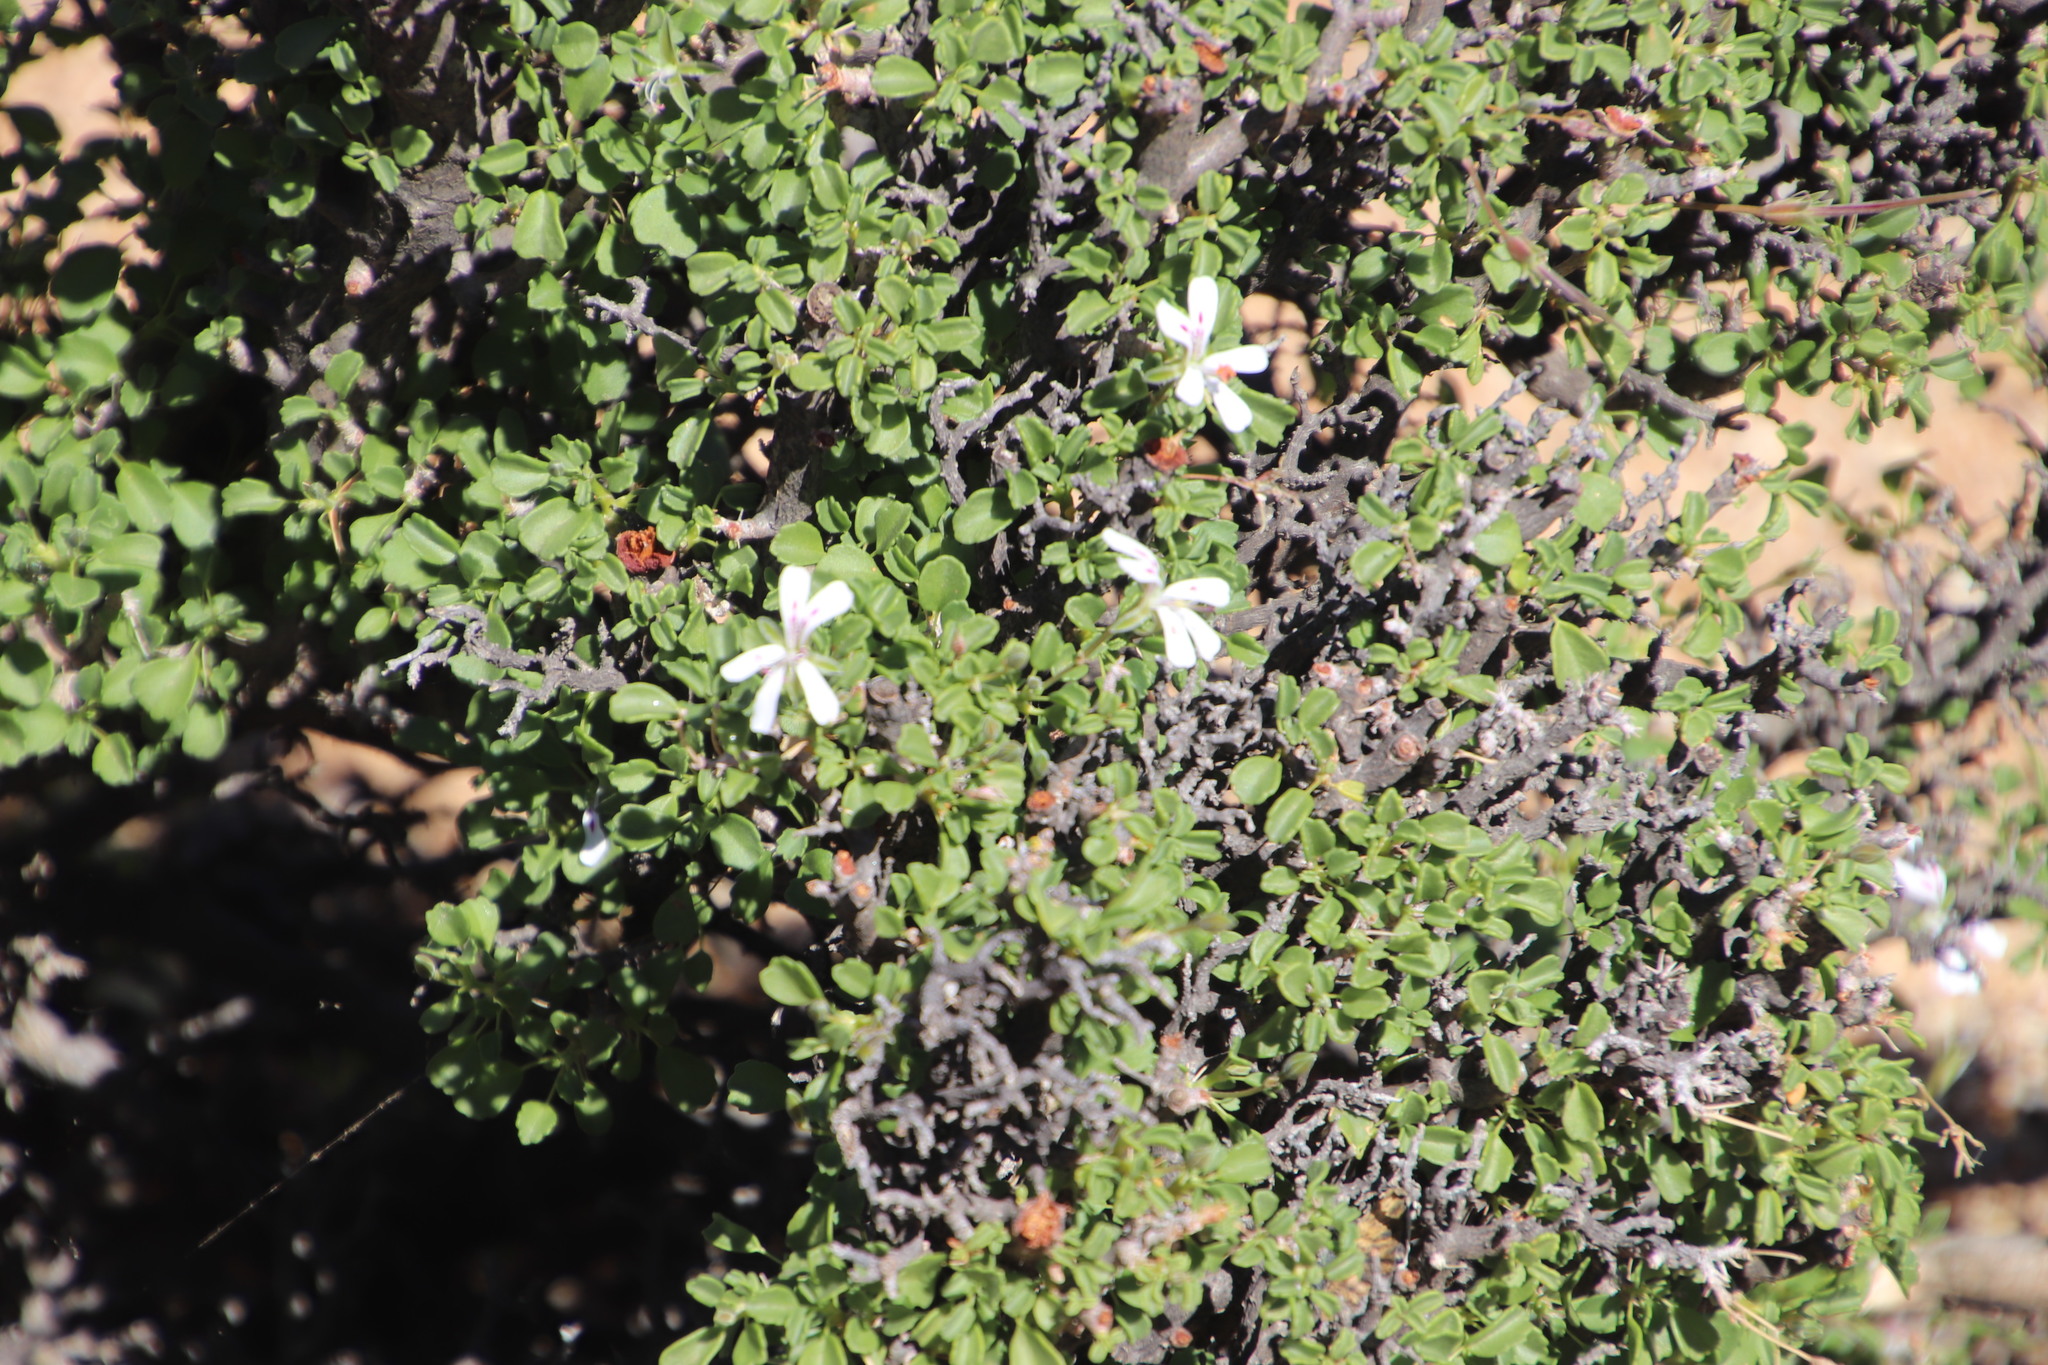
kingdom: Plantae
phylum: Tracheophyta
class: Magnoliopsida
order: Geraniales
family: Geraniaceae
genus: Pelargonium
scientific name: Pelargonium xerophyton
